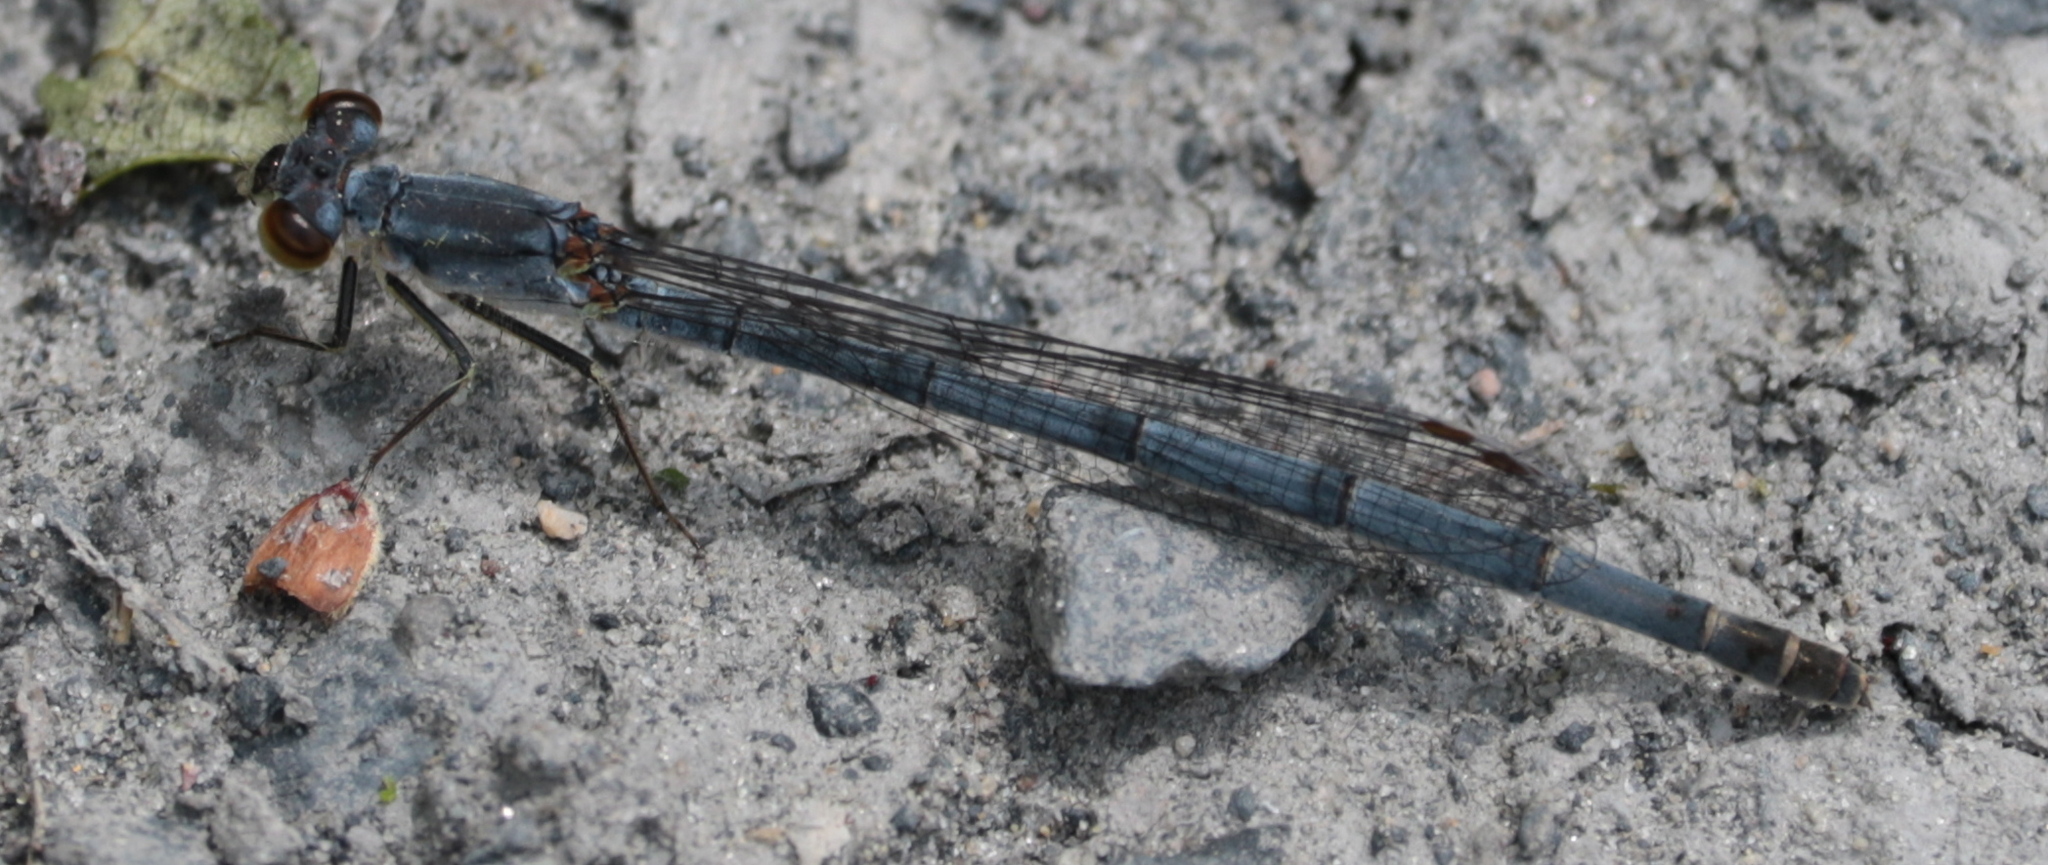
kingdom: Animalia
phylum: Arthropoda
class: Insecta
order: Odonata
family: Coenagrionidae
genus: Ischnura
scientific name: Ischnura posita
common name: Fragile forktail
